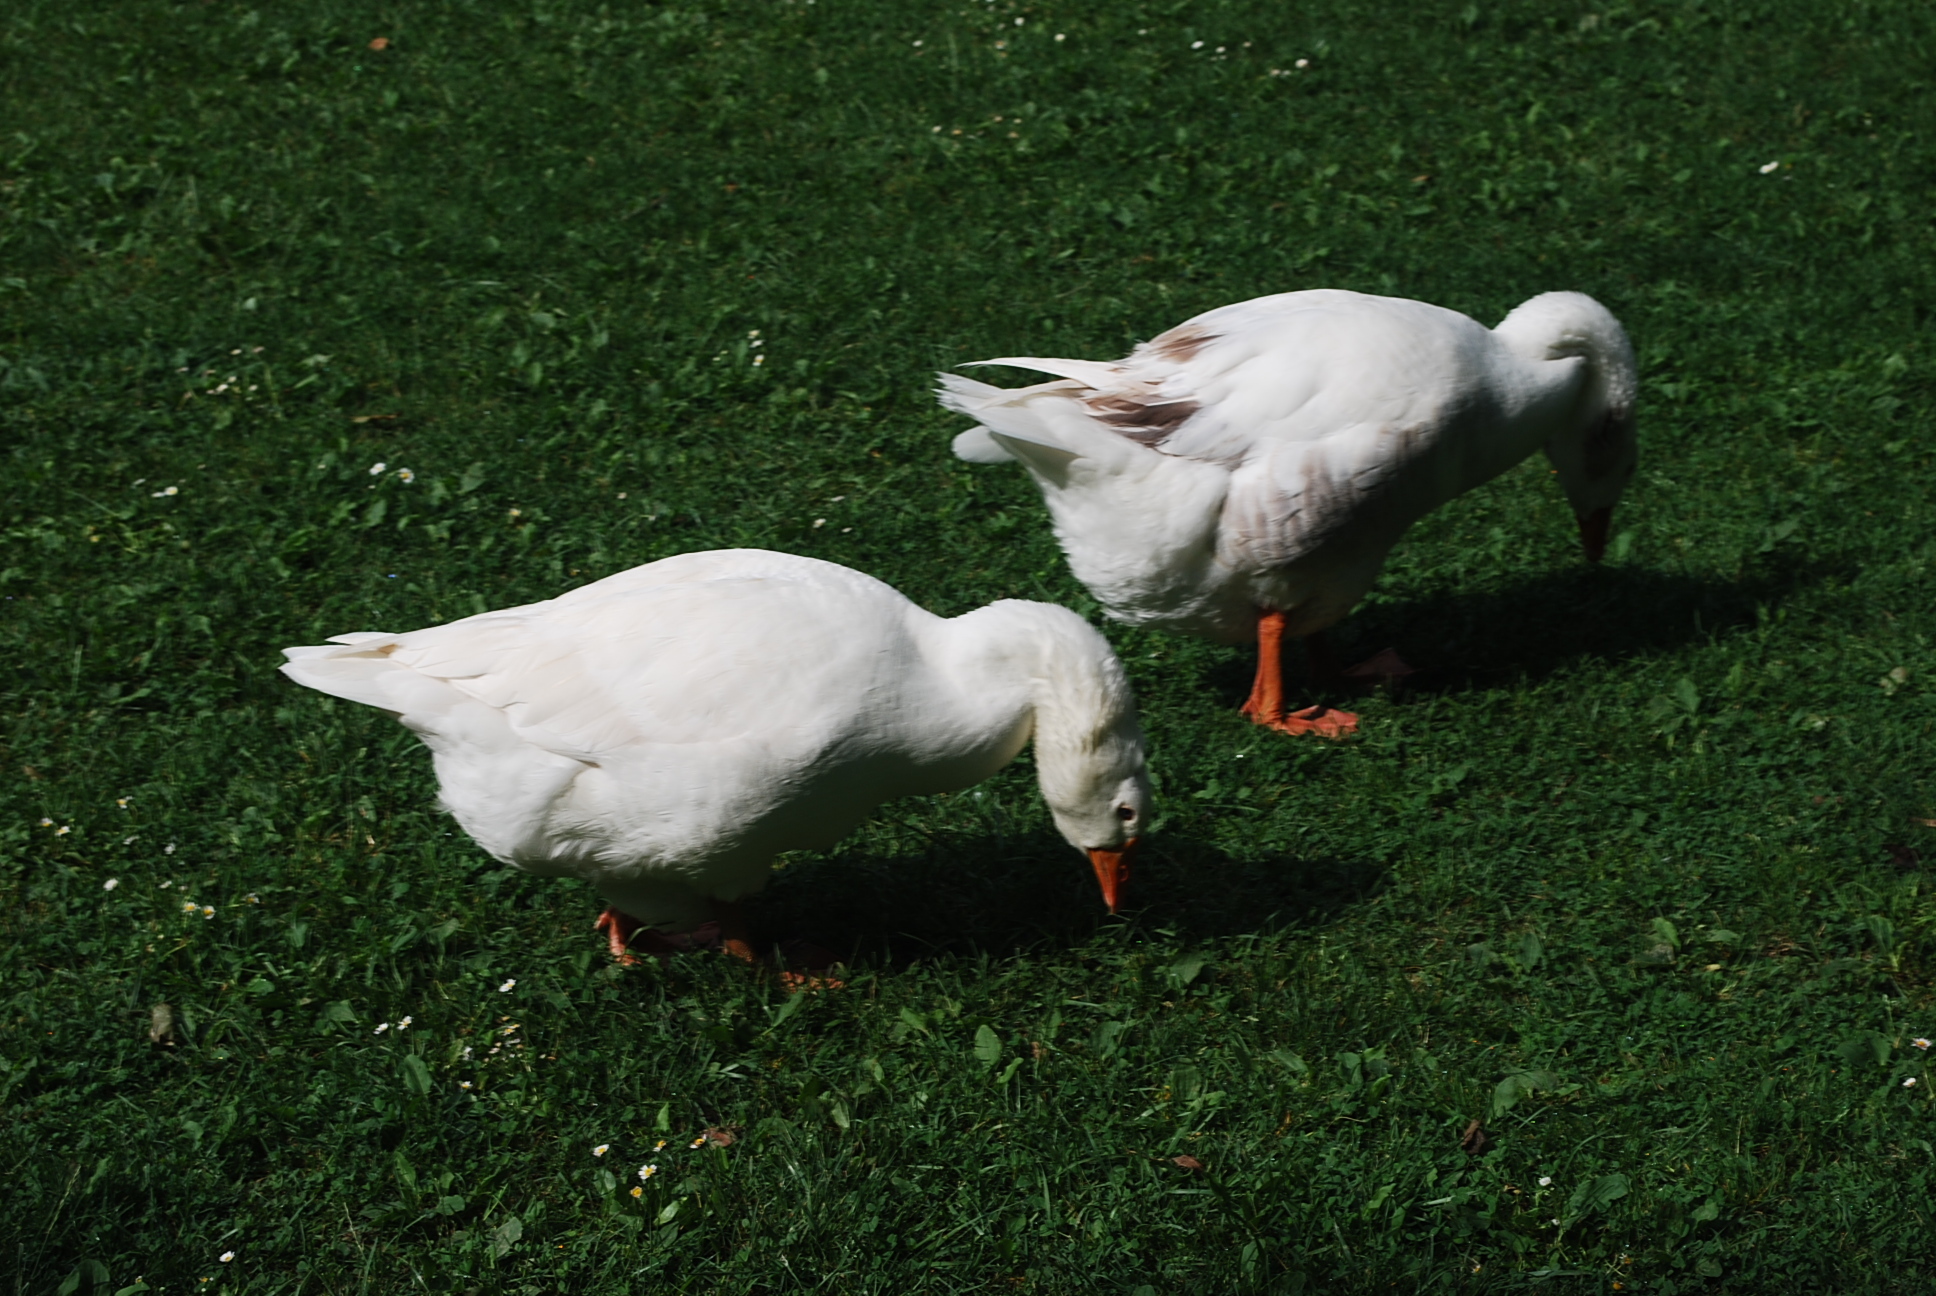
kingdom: Animalia
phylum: Chordata
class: Aves
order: Anseriformes
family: Anatidae
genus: Anser
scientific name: Anser anser
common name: Greylag goose
